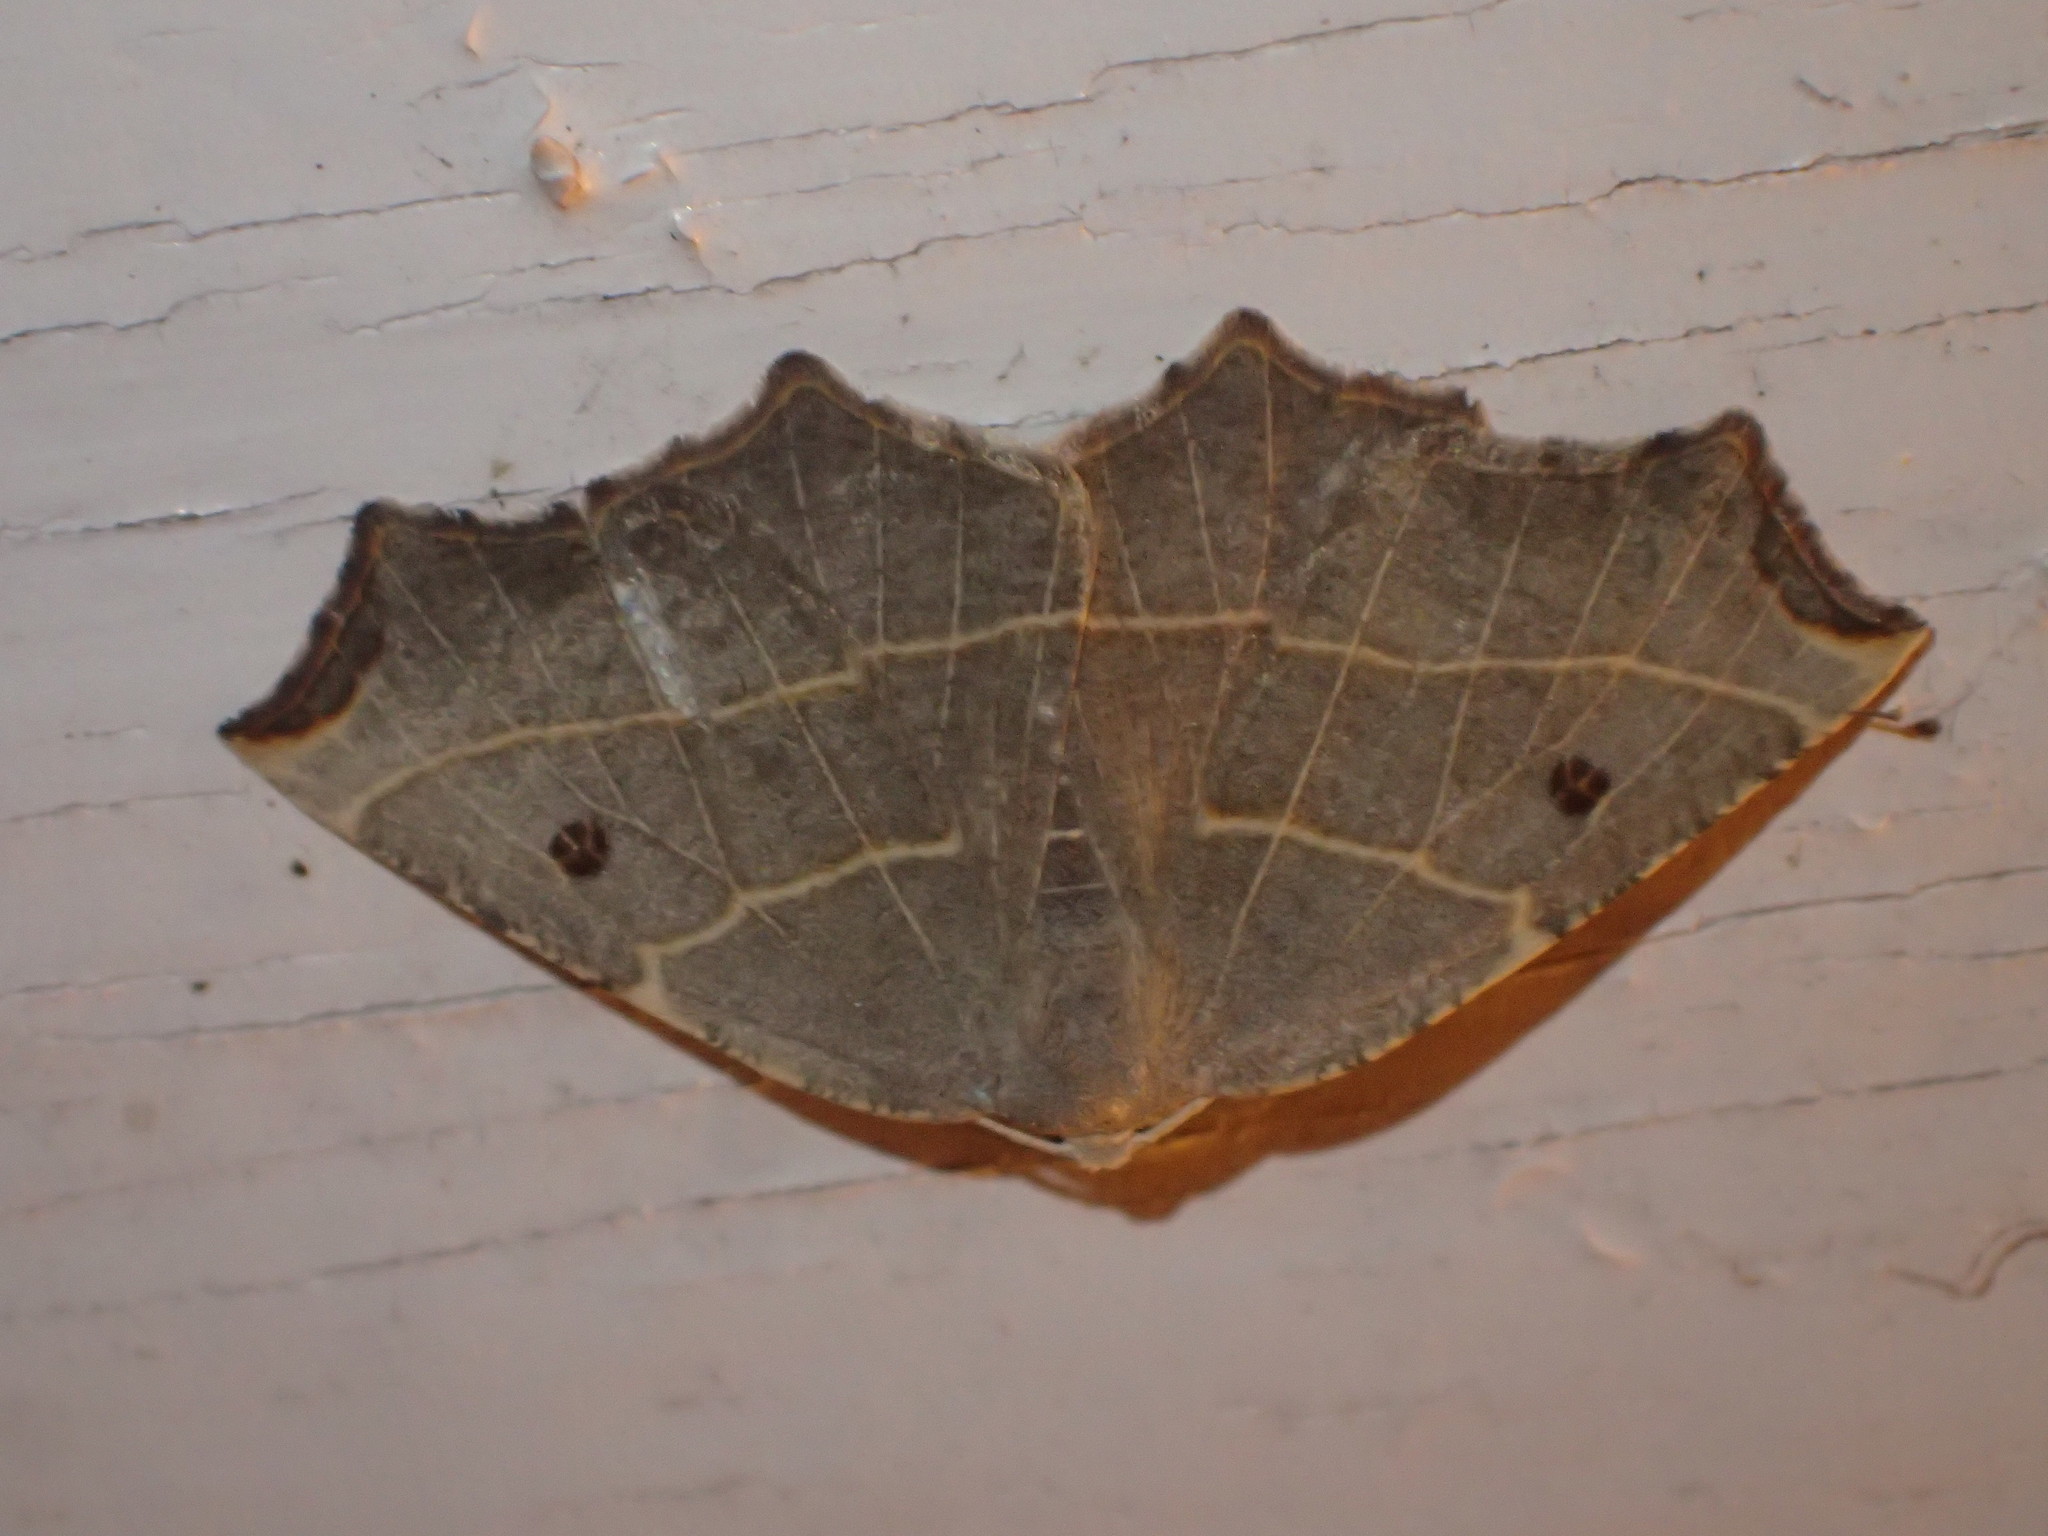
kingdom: Animalia
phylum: Arthropoda
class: Insecta
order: Lepidoptera
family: Geometridae
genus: Metanema
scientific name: Metanema inatomaria
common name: Pale metanema
